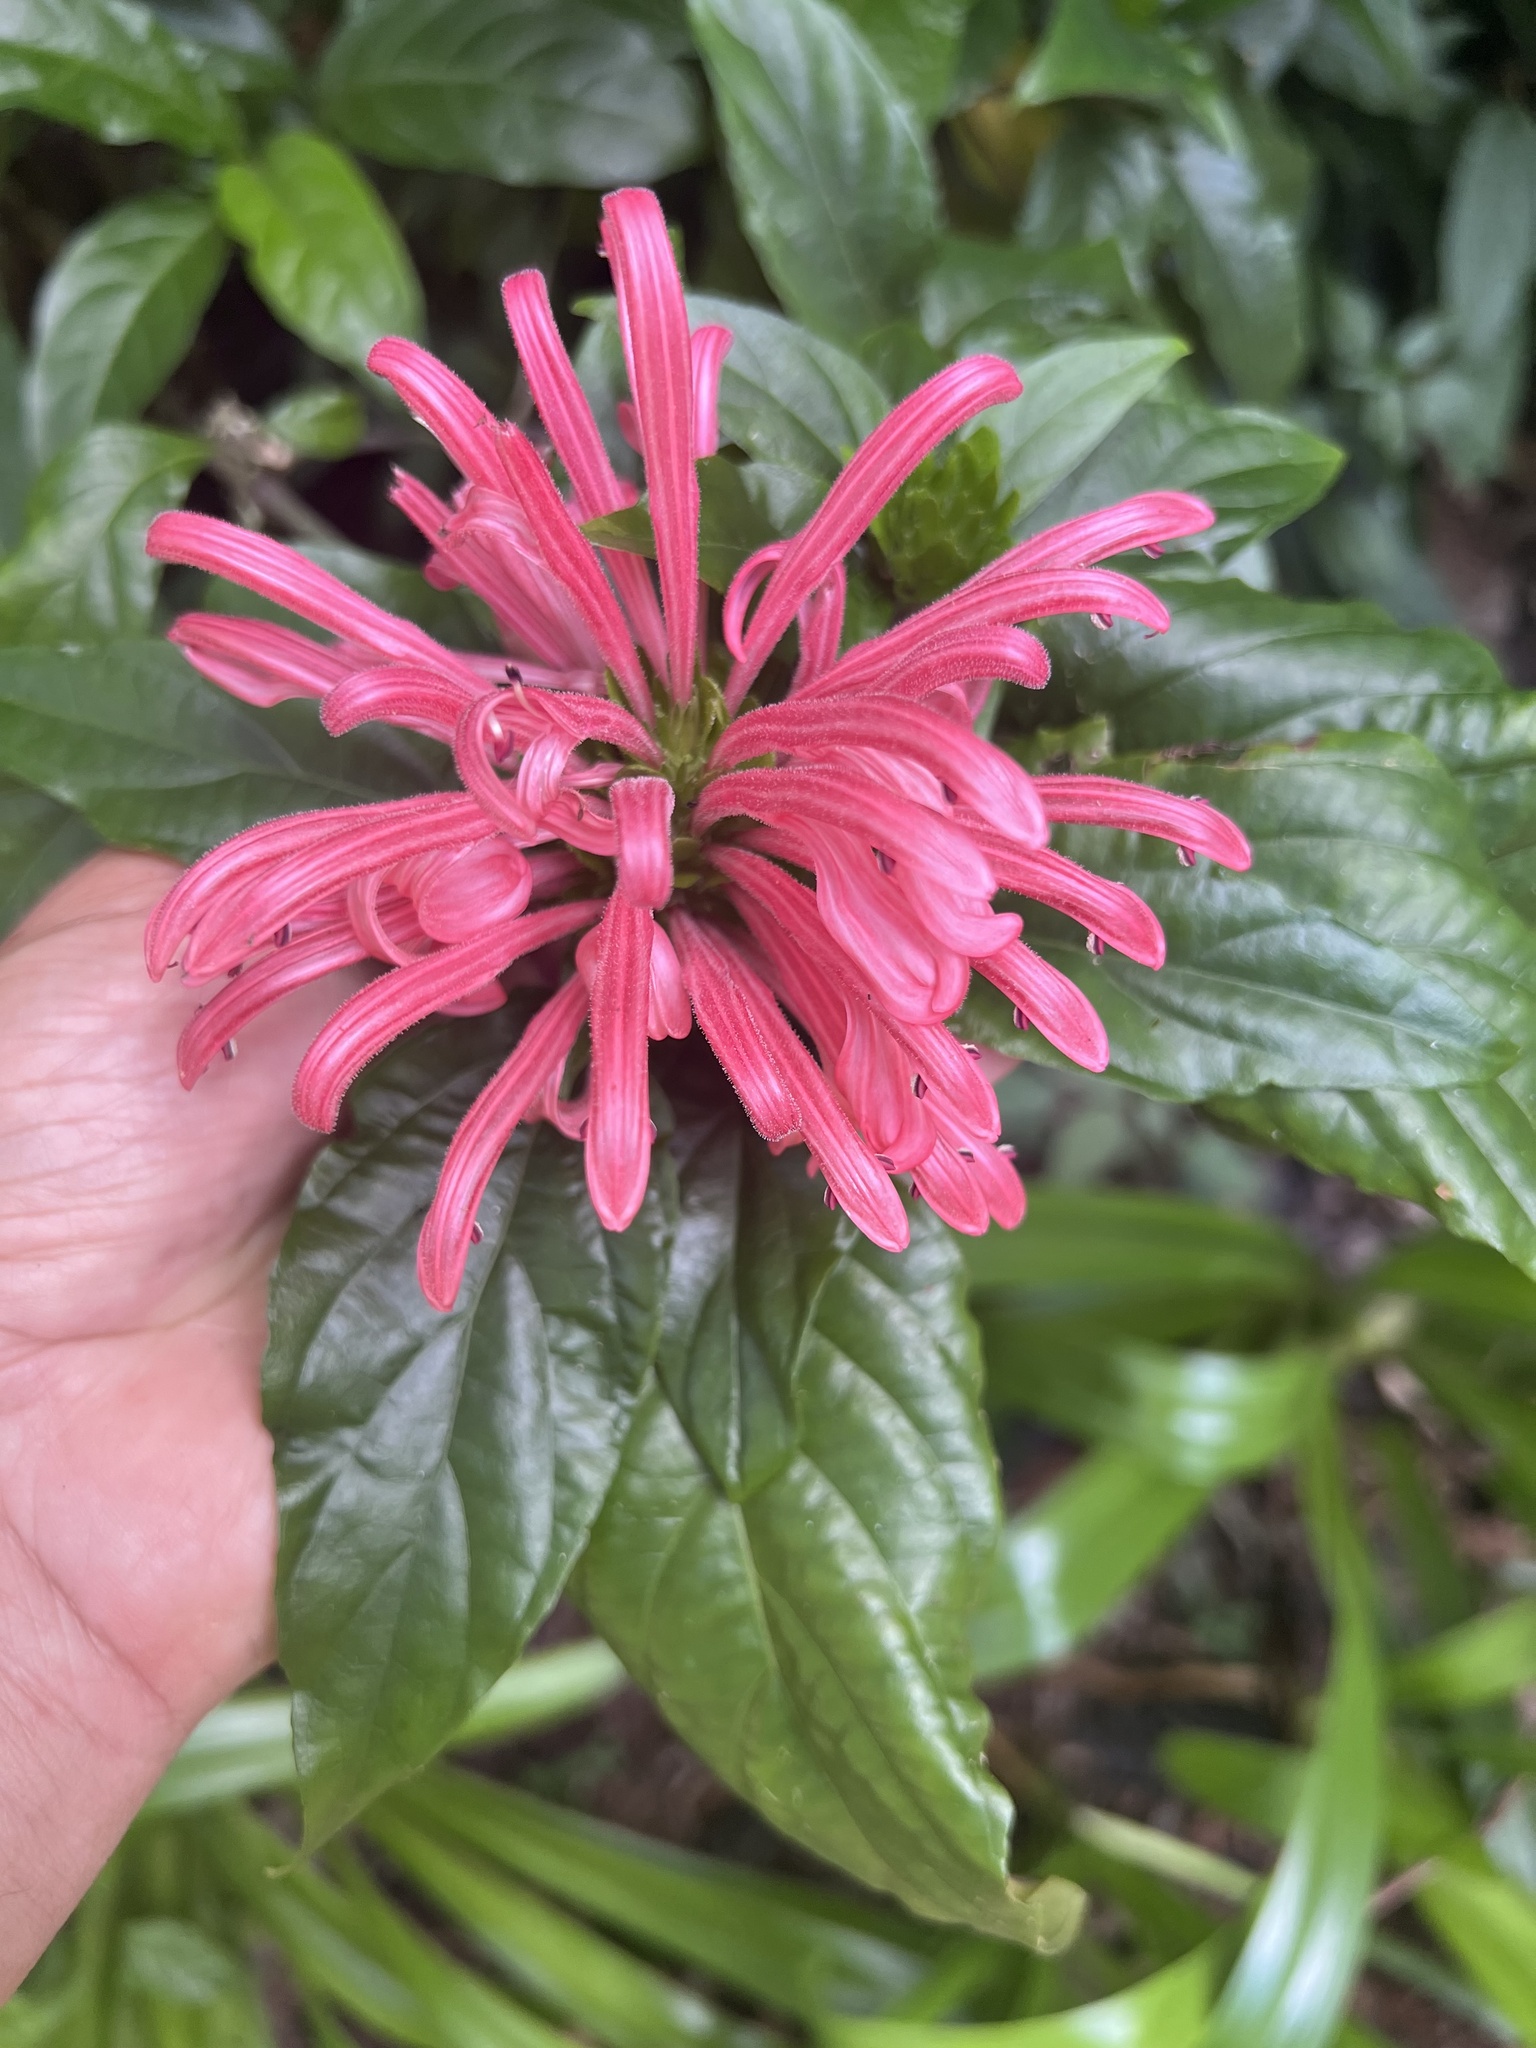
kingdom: Plantae
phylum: Tracheophyta
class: Magnoliopsida
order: Lamiales
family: Acanthaceae
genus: Justicia
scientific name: Justicia carnea
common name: Brazilian-plume
